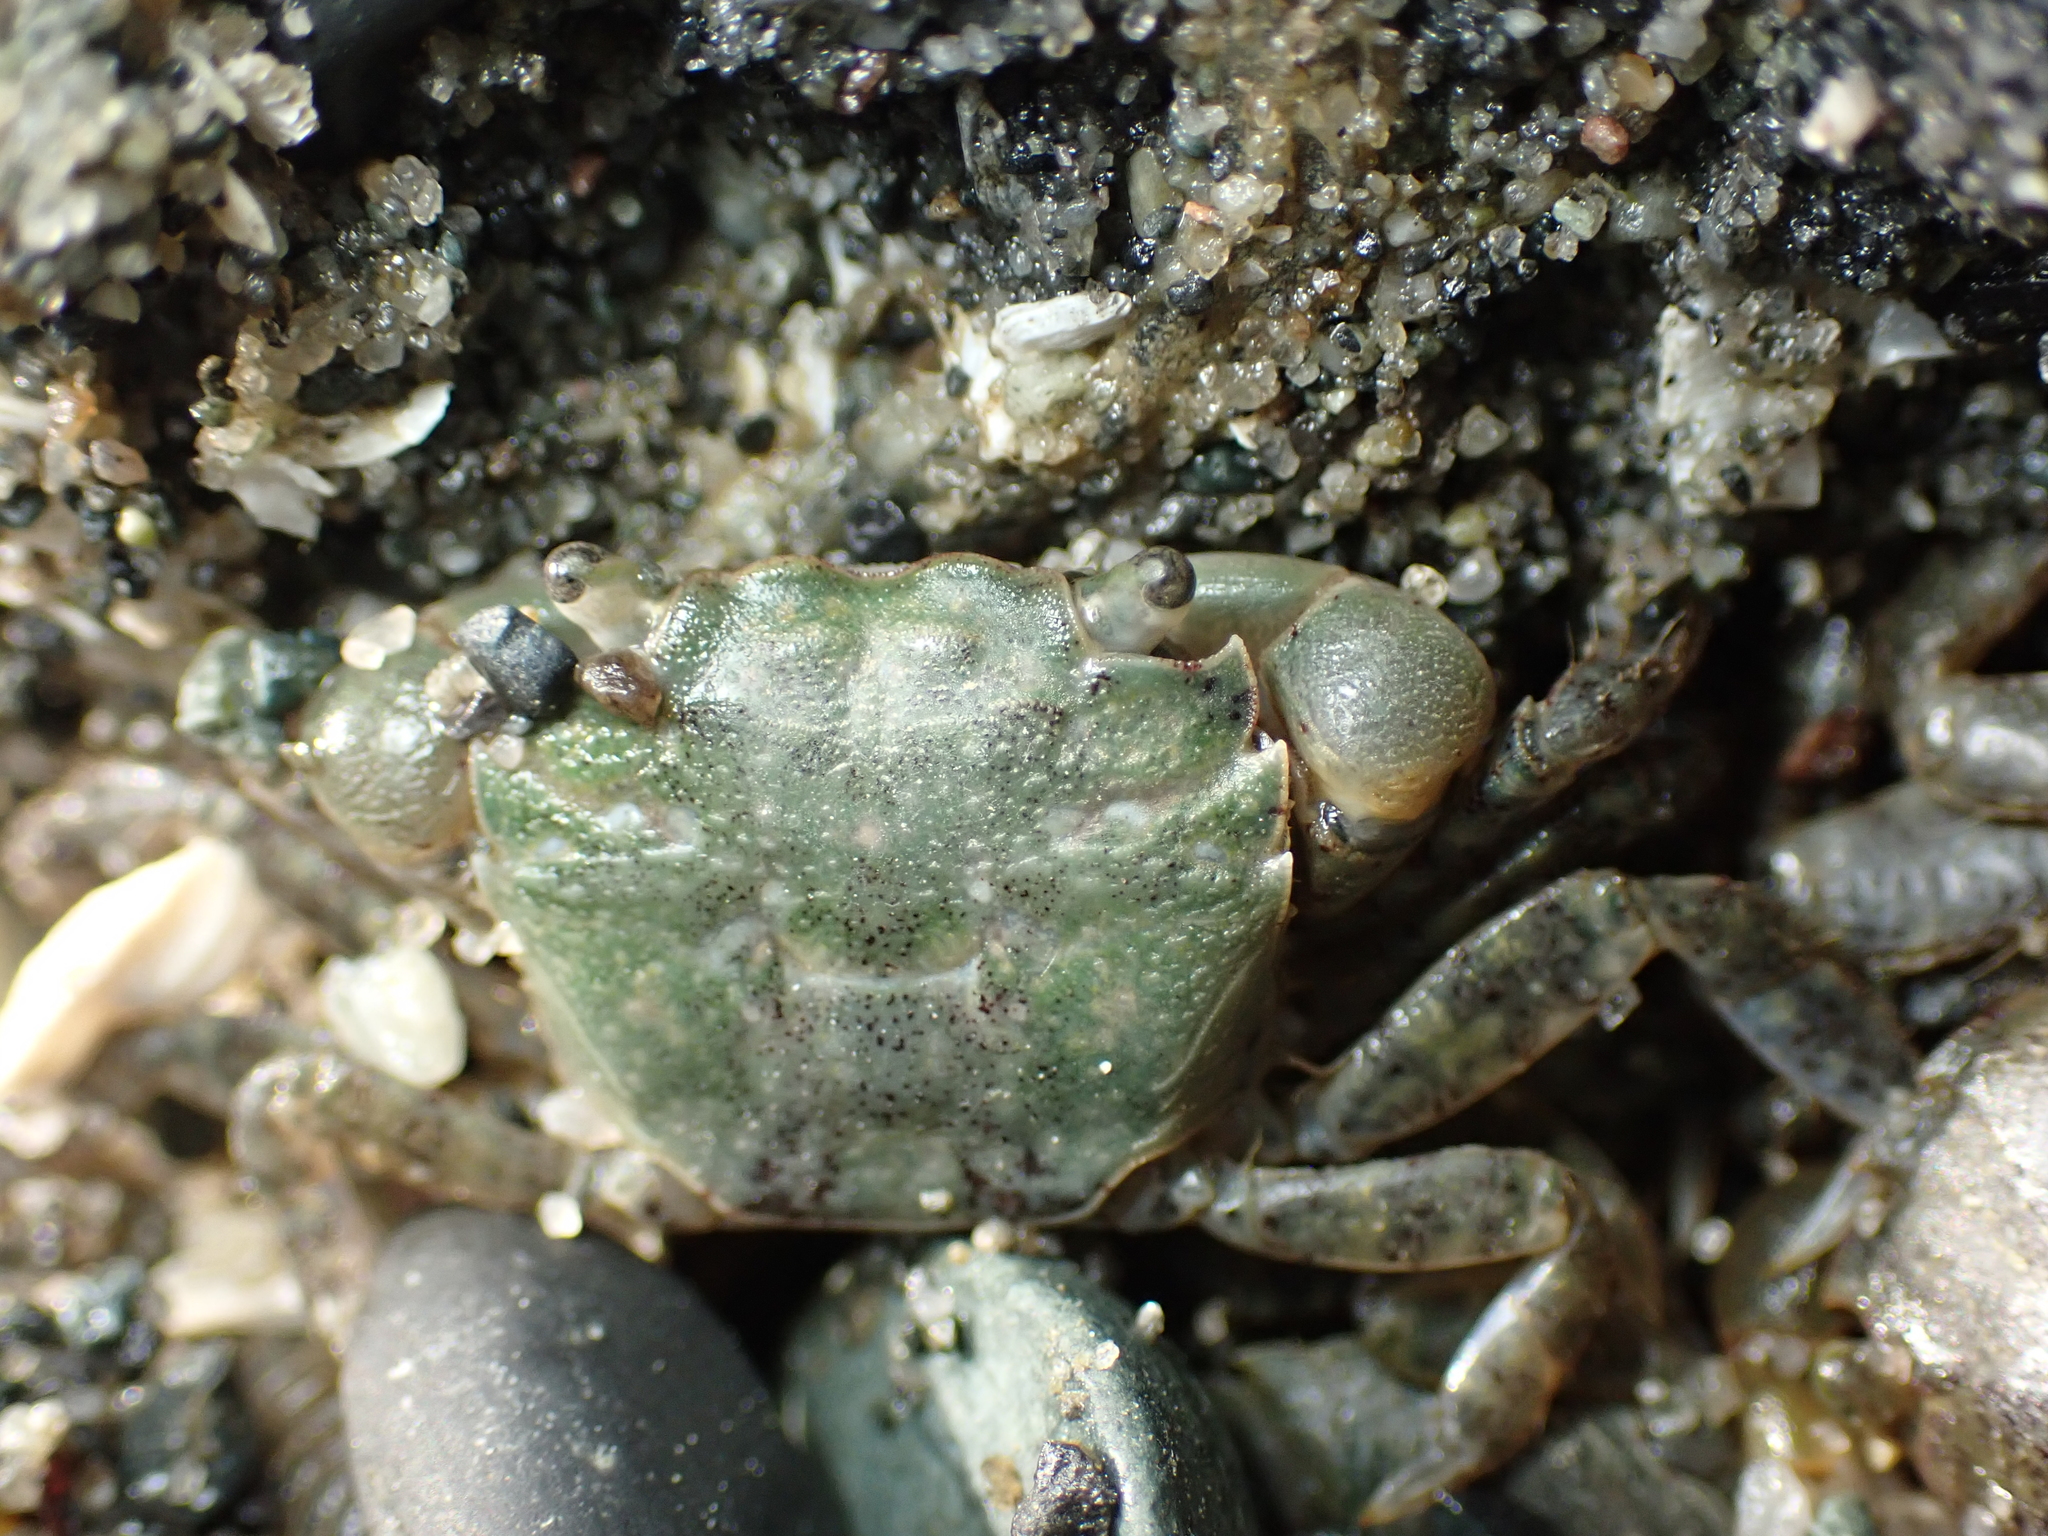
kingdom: Animalia
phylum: Arthropoda
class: Malacostraca
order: Decapoda
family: Varunidae
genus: Hemigrapsus
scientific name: Hemigrapsus oregonensis
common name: Yellow shore crab
